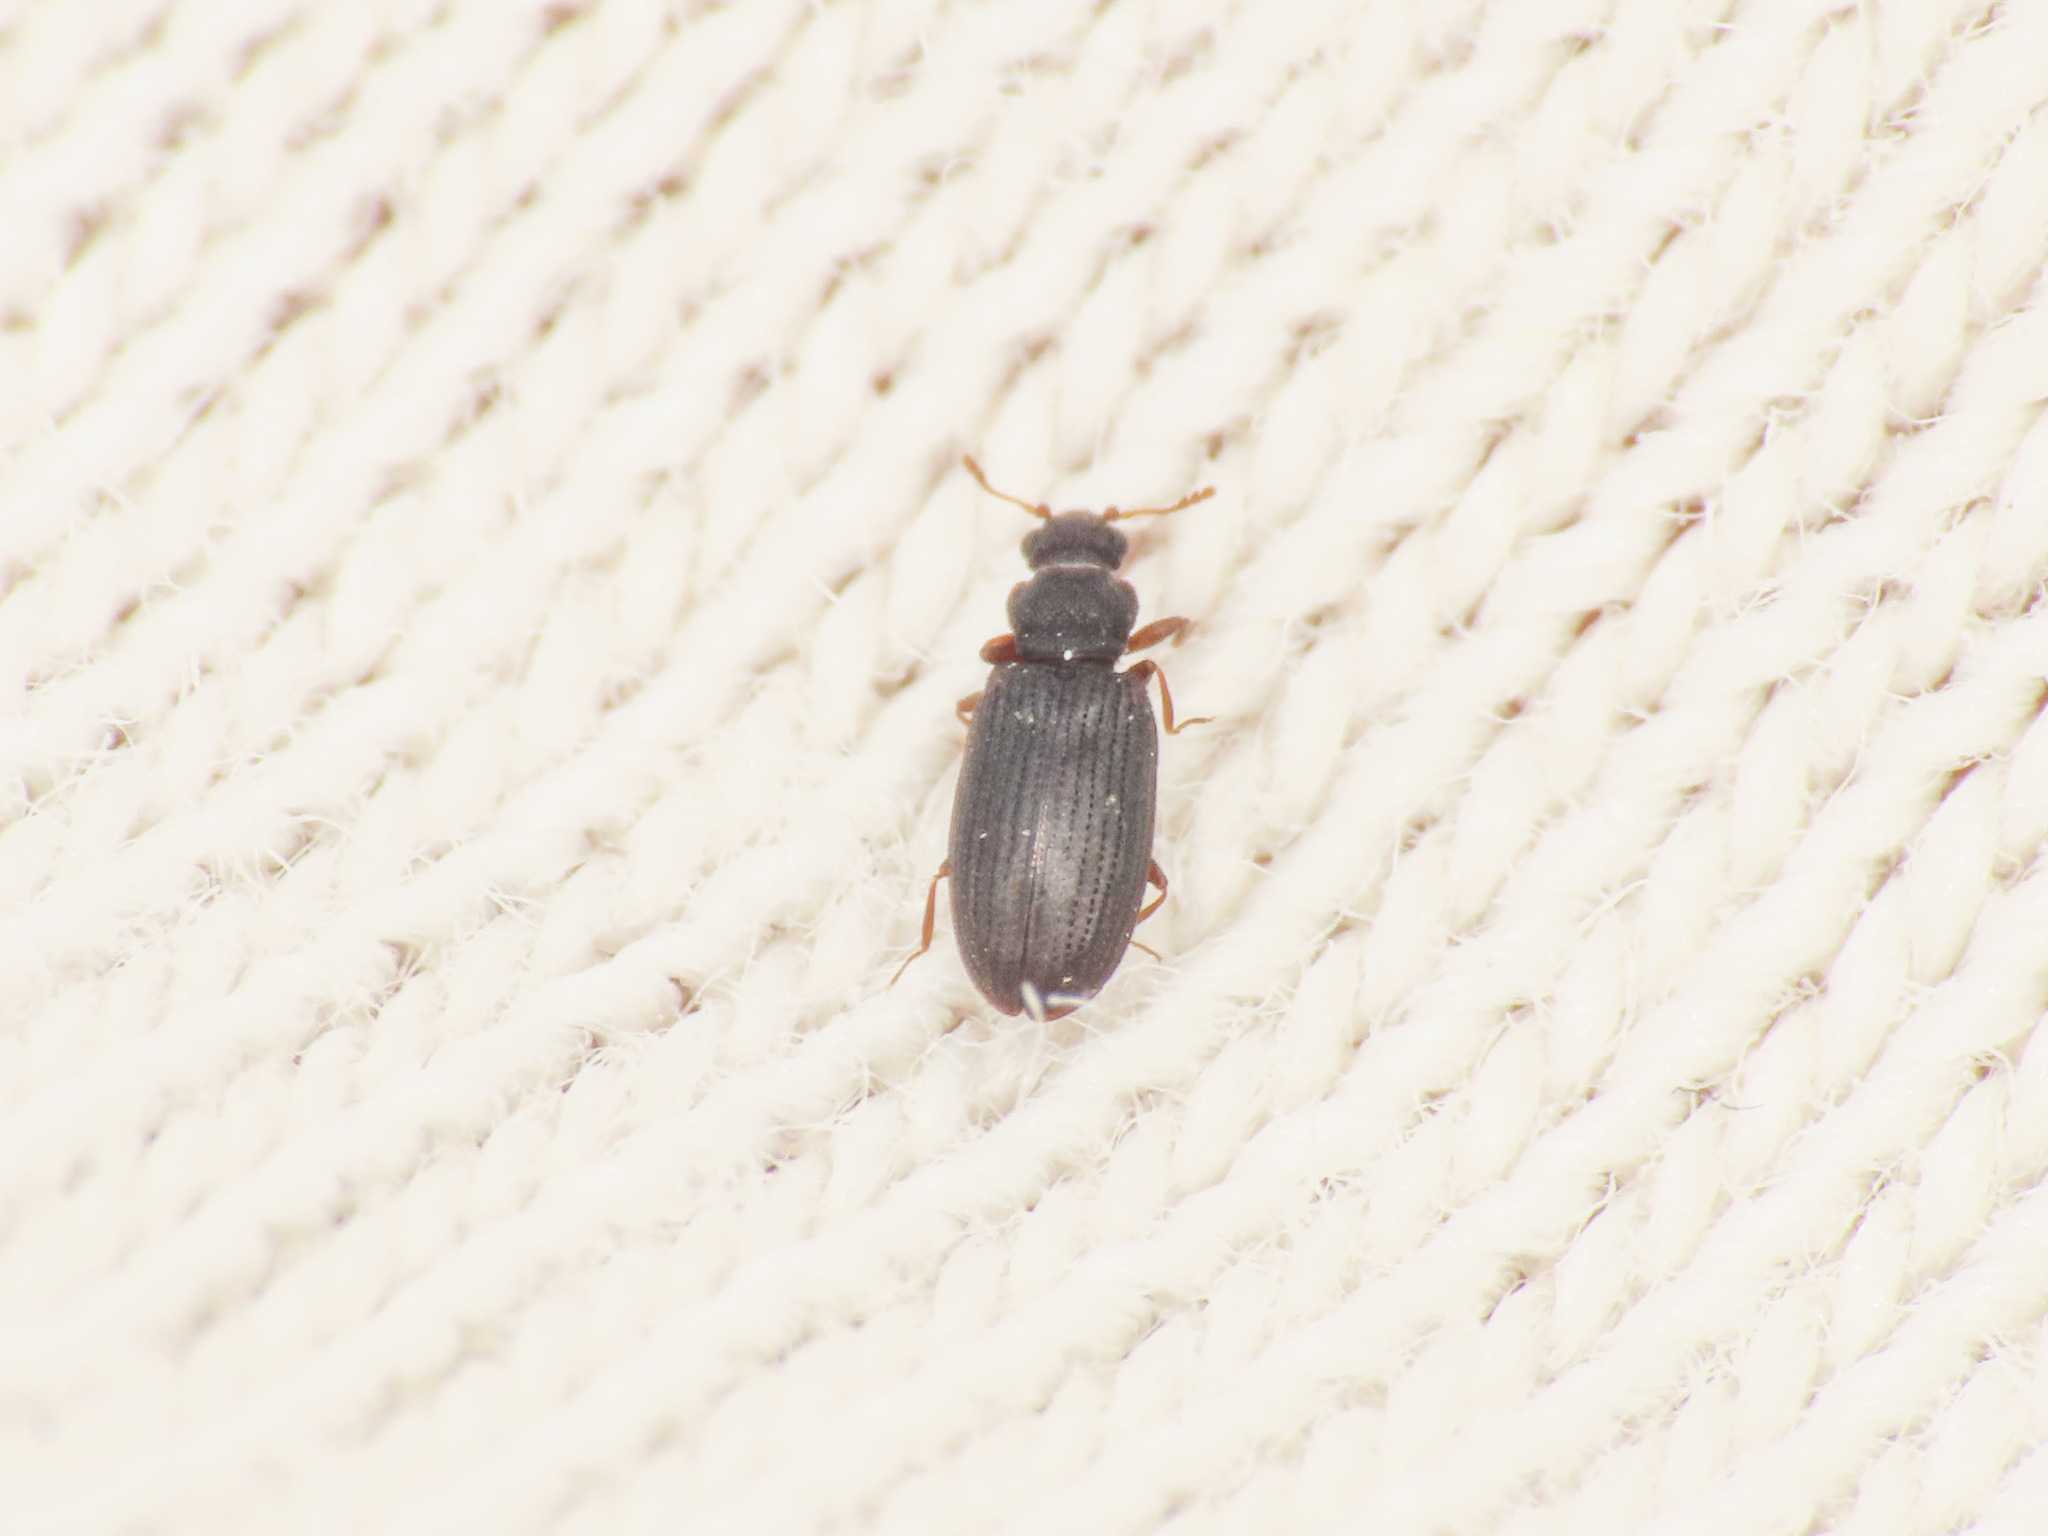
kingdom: Animalia
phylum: Arthropoda
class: Insecta
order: Coleoptera
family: Latridiidae
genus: Enicmus
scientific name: Enicmus brevicornis
